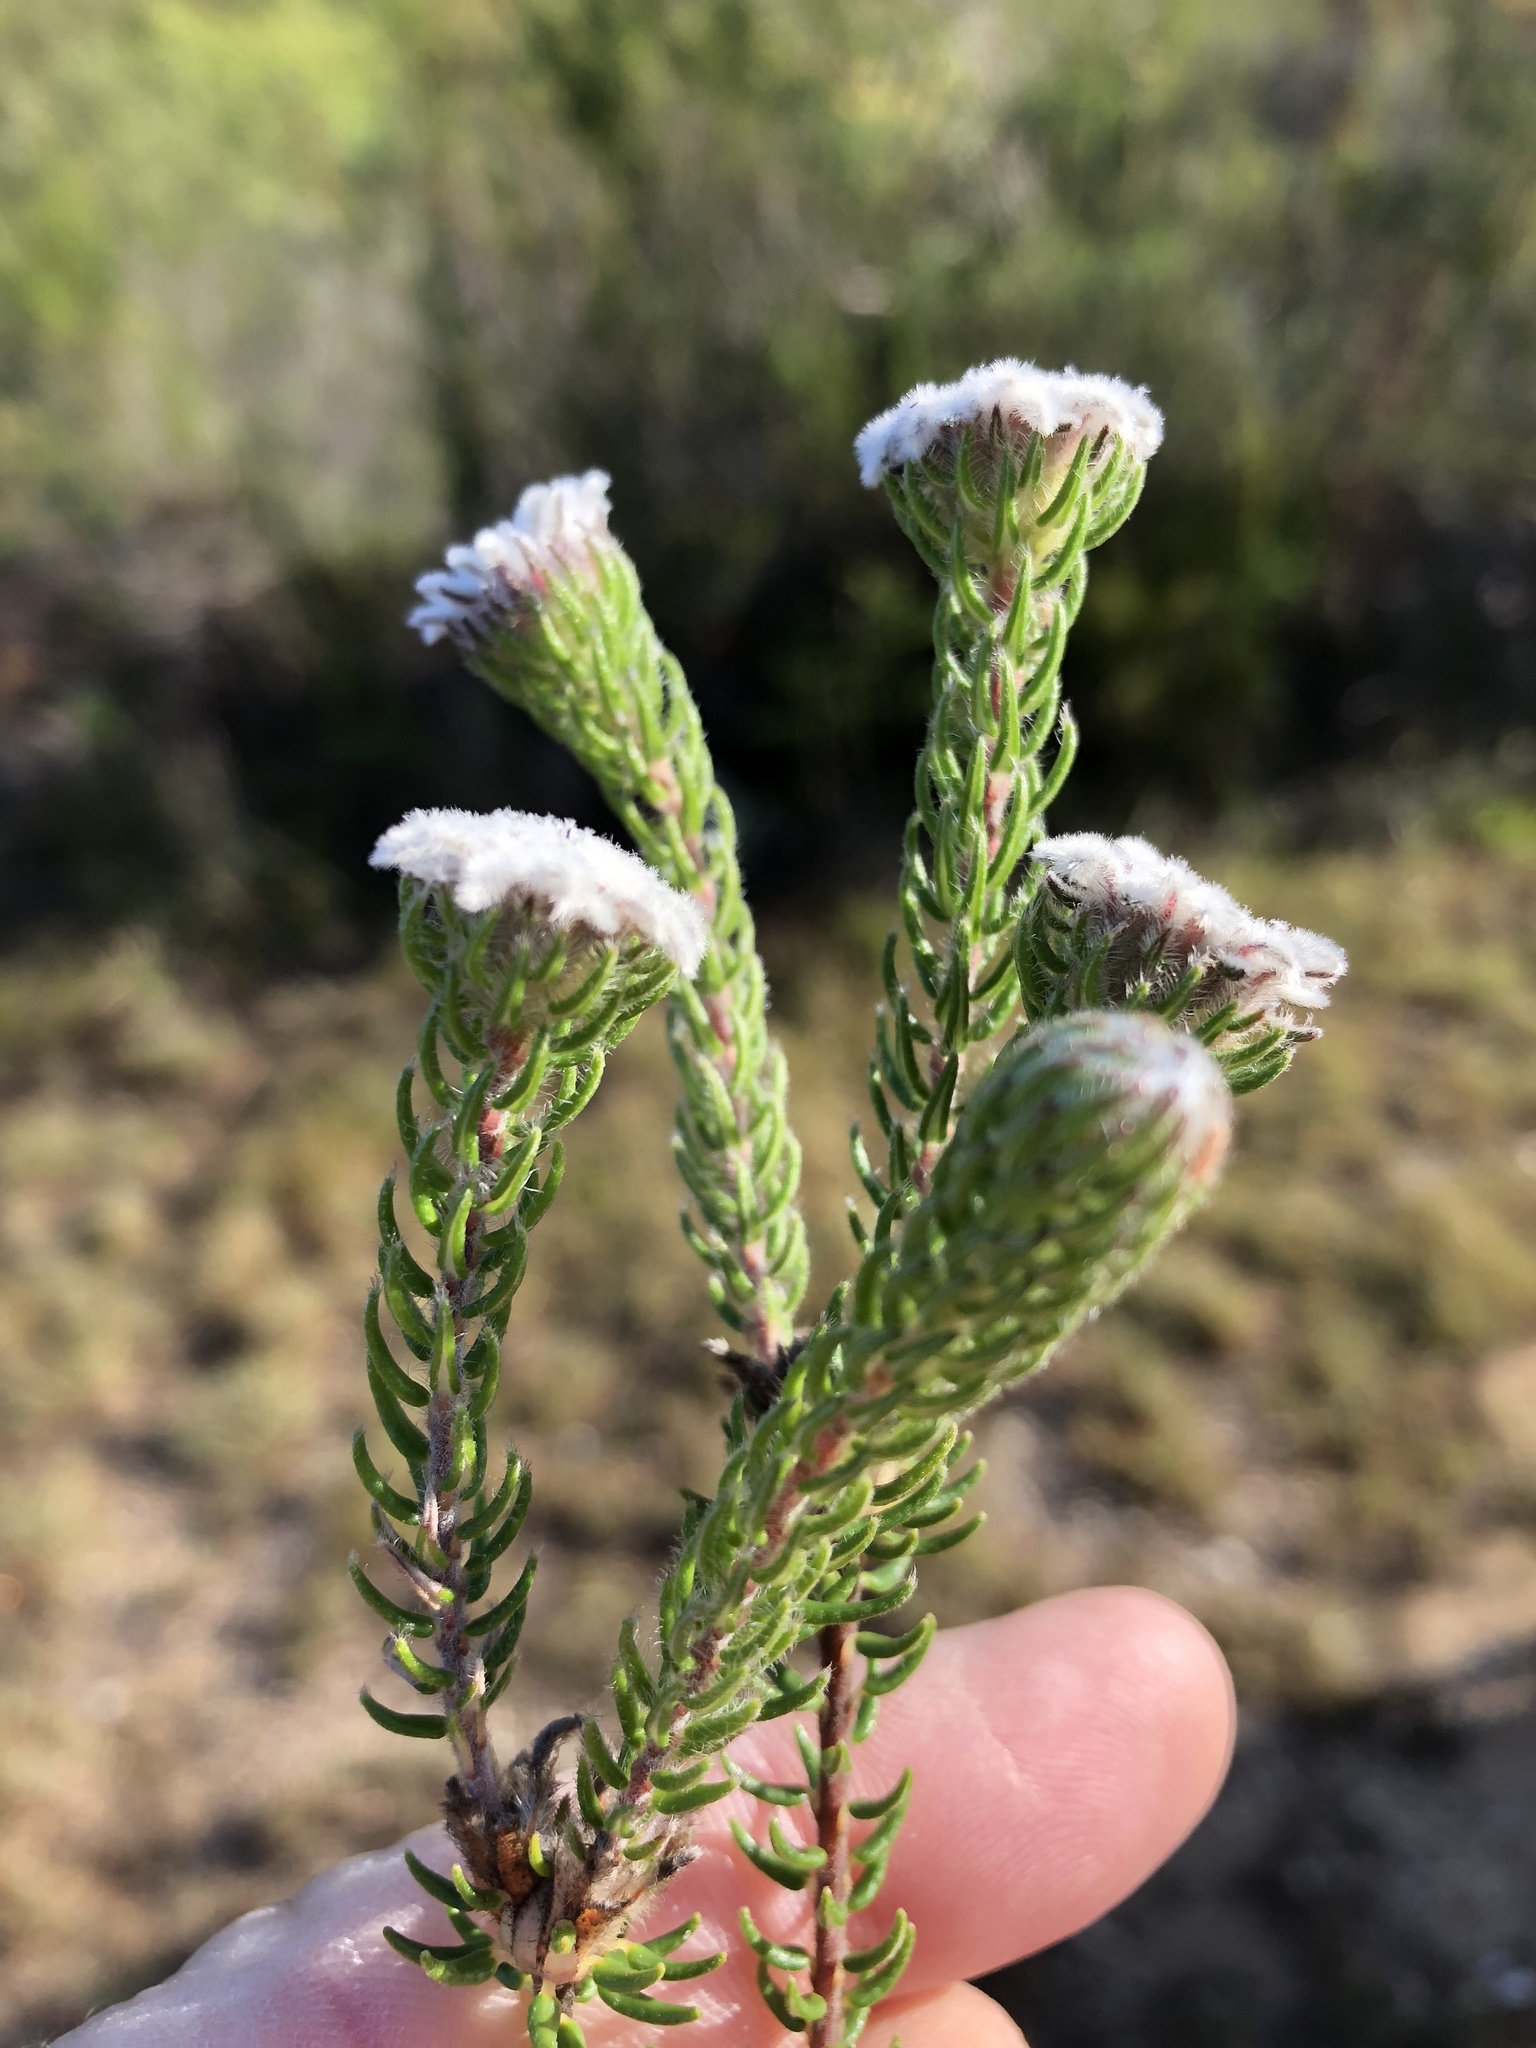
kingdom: Plantae
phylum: Tracheophyta
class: Magnoliopsida
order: Rosales
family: Rhamnaceae
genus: Phylica
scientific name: Phylica curvifolia
